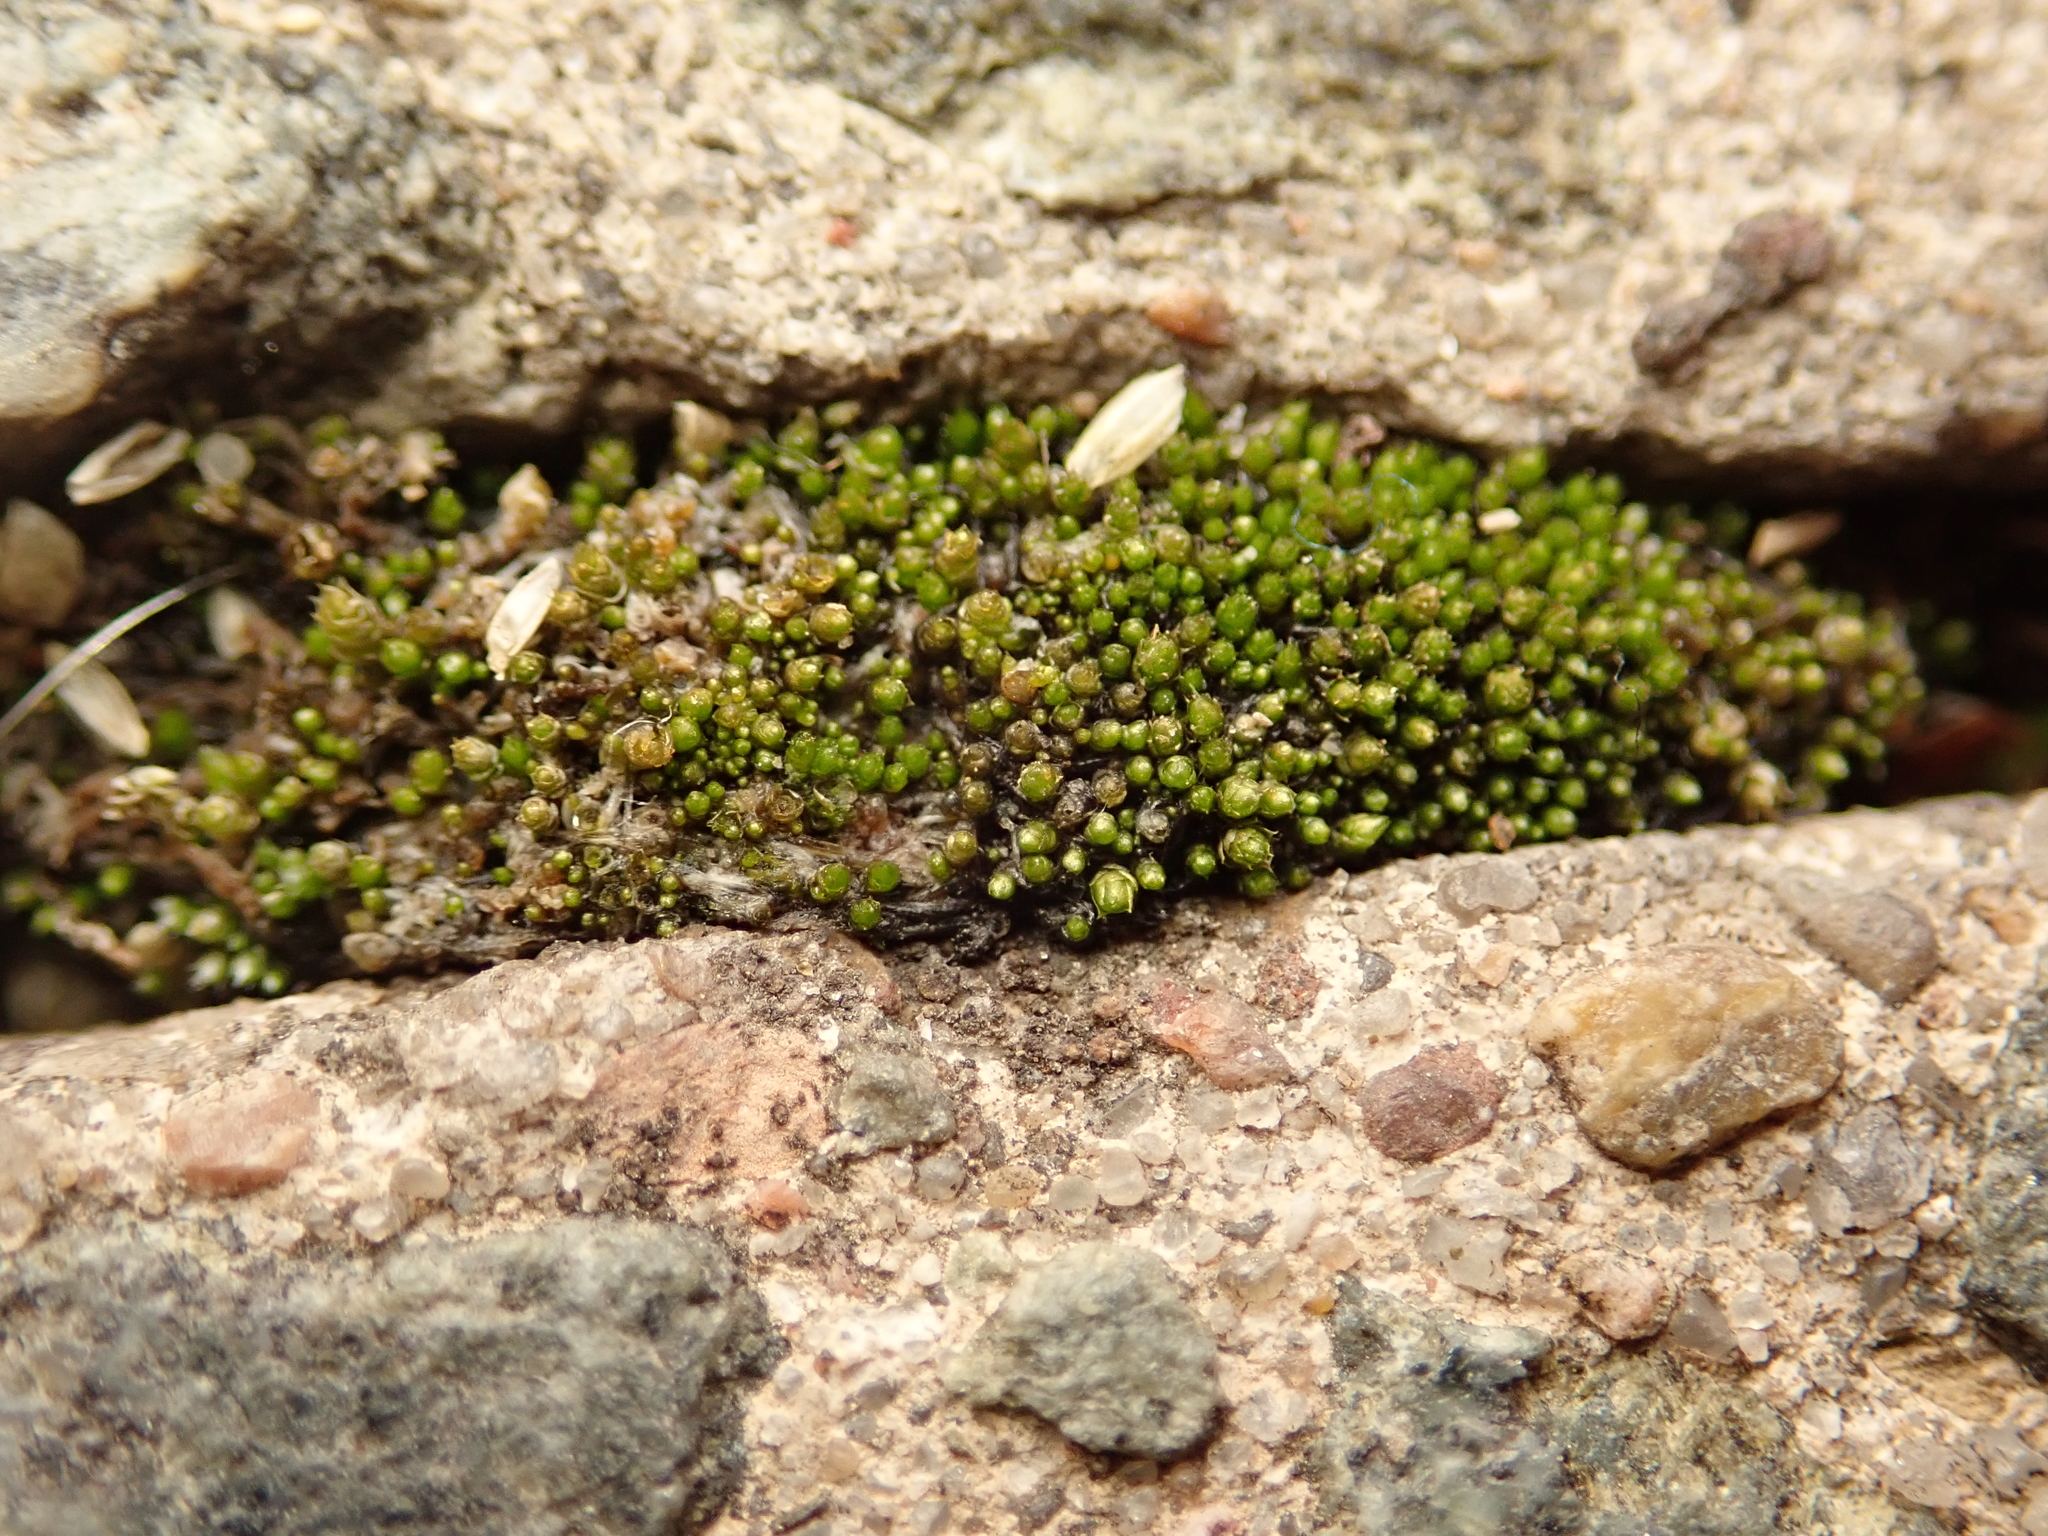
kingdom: Plantae
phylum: Bryophyta
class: Bryopsida
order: Bryales
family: Bryaceae
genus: Bryum
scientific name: Bryum argenteum
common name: Silver-moss
